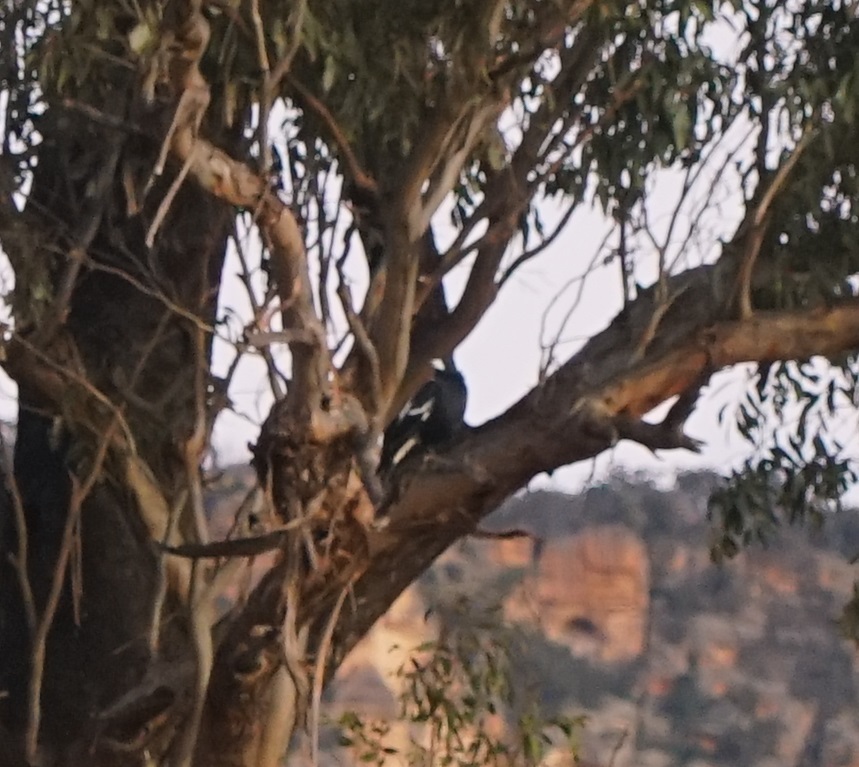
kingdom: Animalia
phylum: Chordata
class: Aves
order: Passeriformes
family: Cracticidae
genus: Gymnorhina
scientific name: Gymnorhina tibicen
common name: Australian magpie
